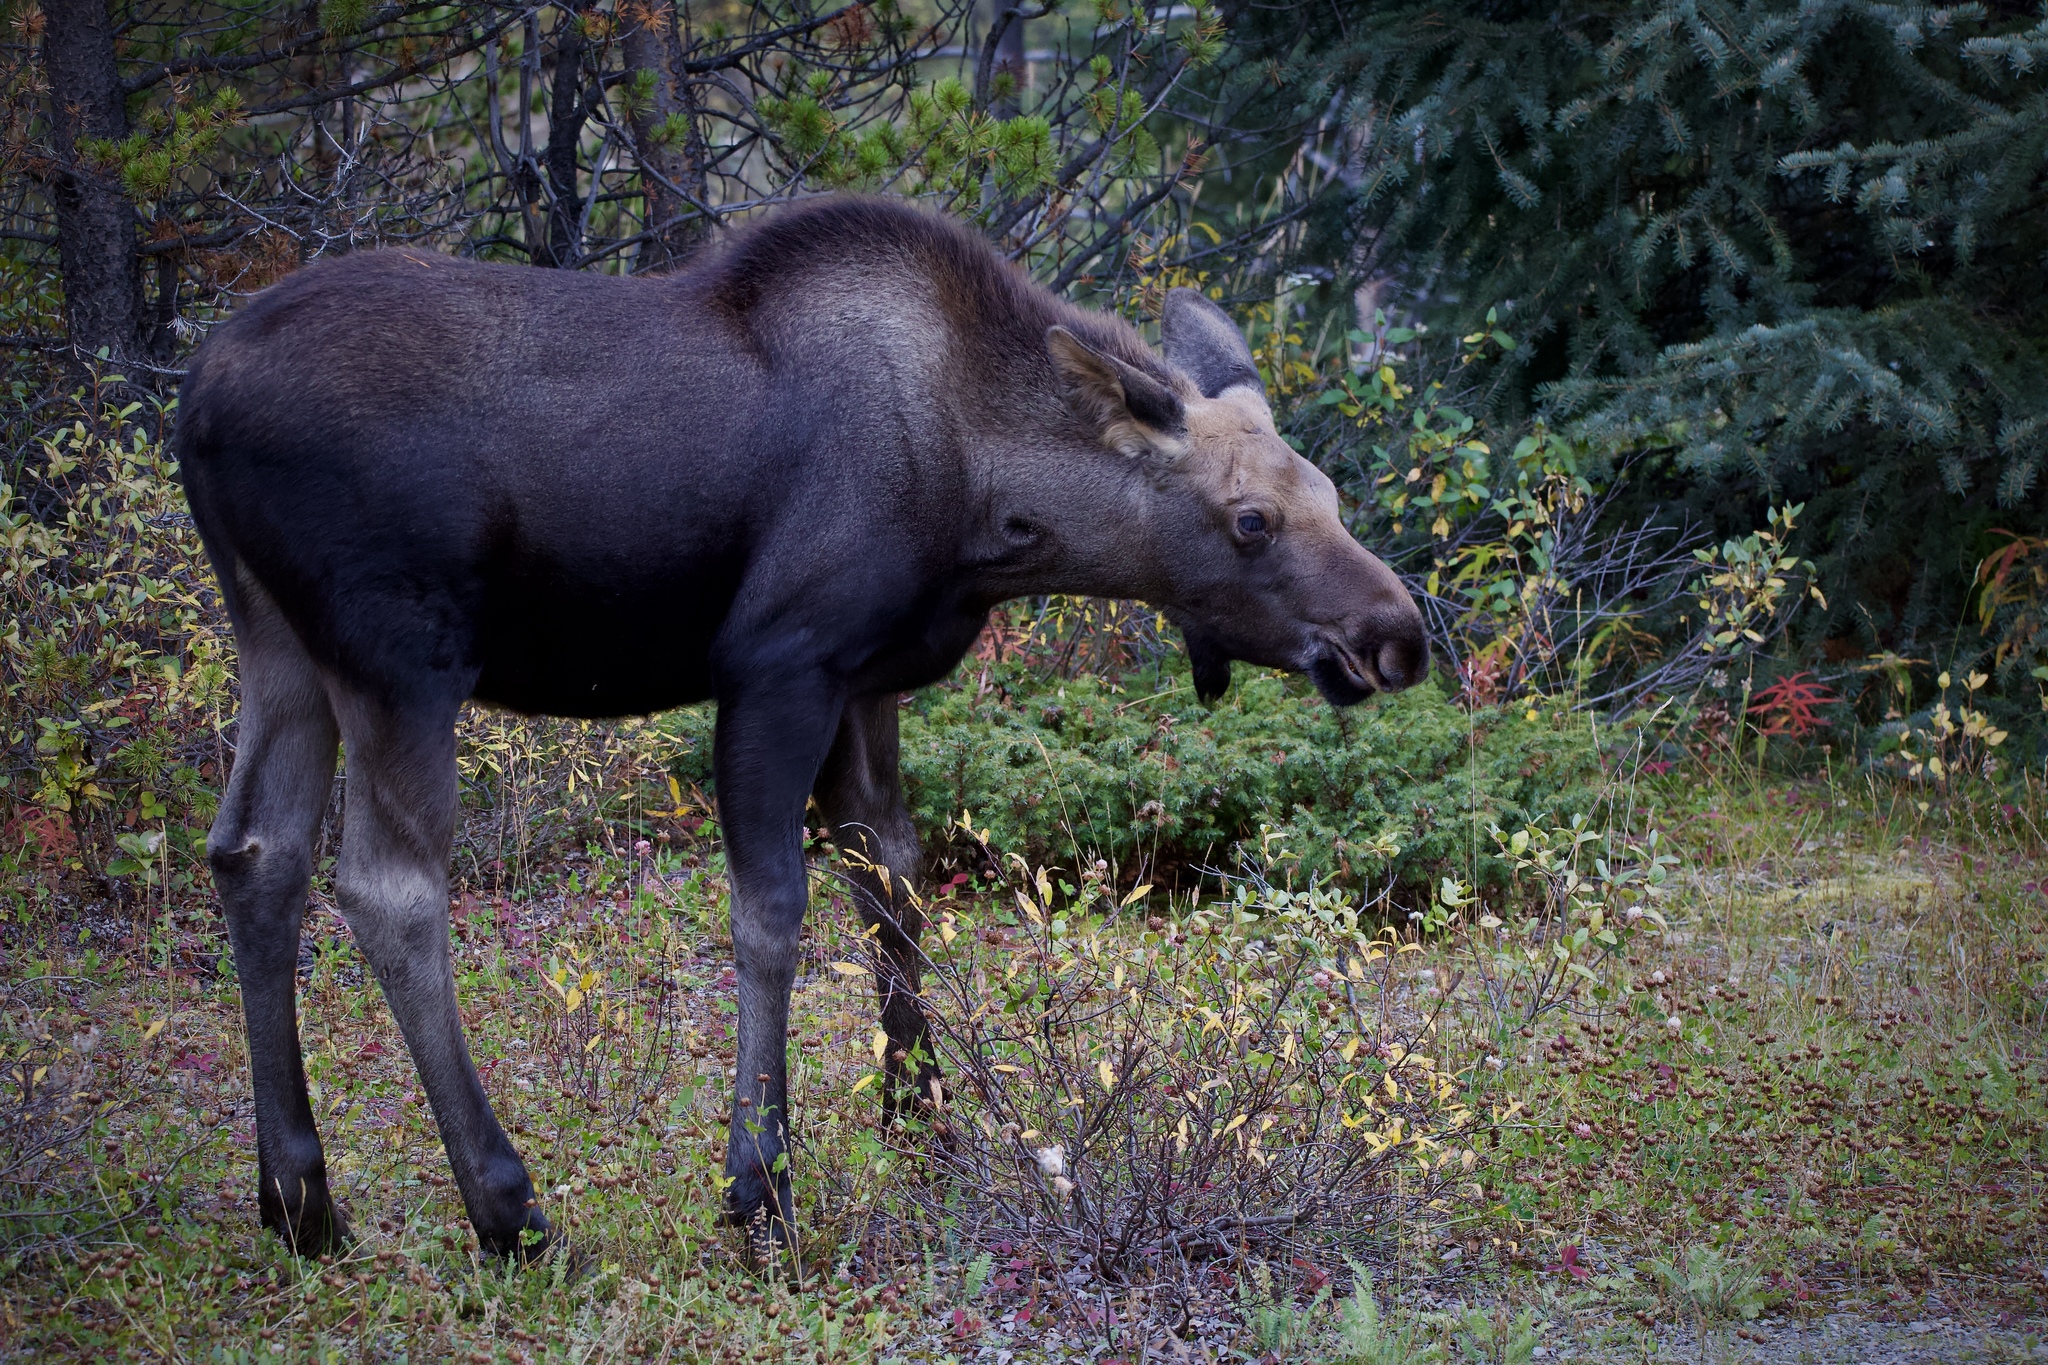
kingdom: Animalia
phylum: Chordata
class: Mammalia
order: Artiodactyla
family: Cervidae
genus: Alces
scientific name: Alces americanus
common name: Moose
